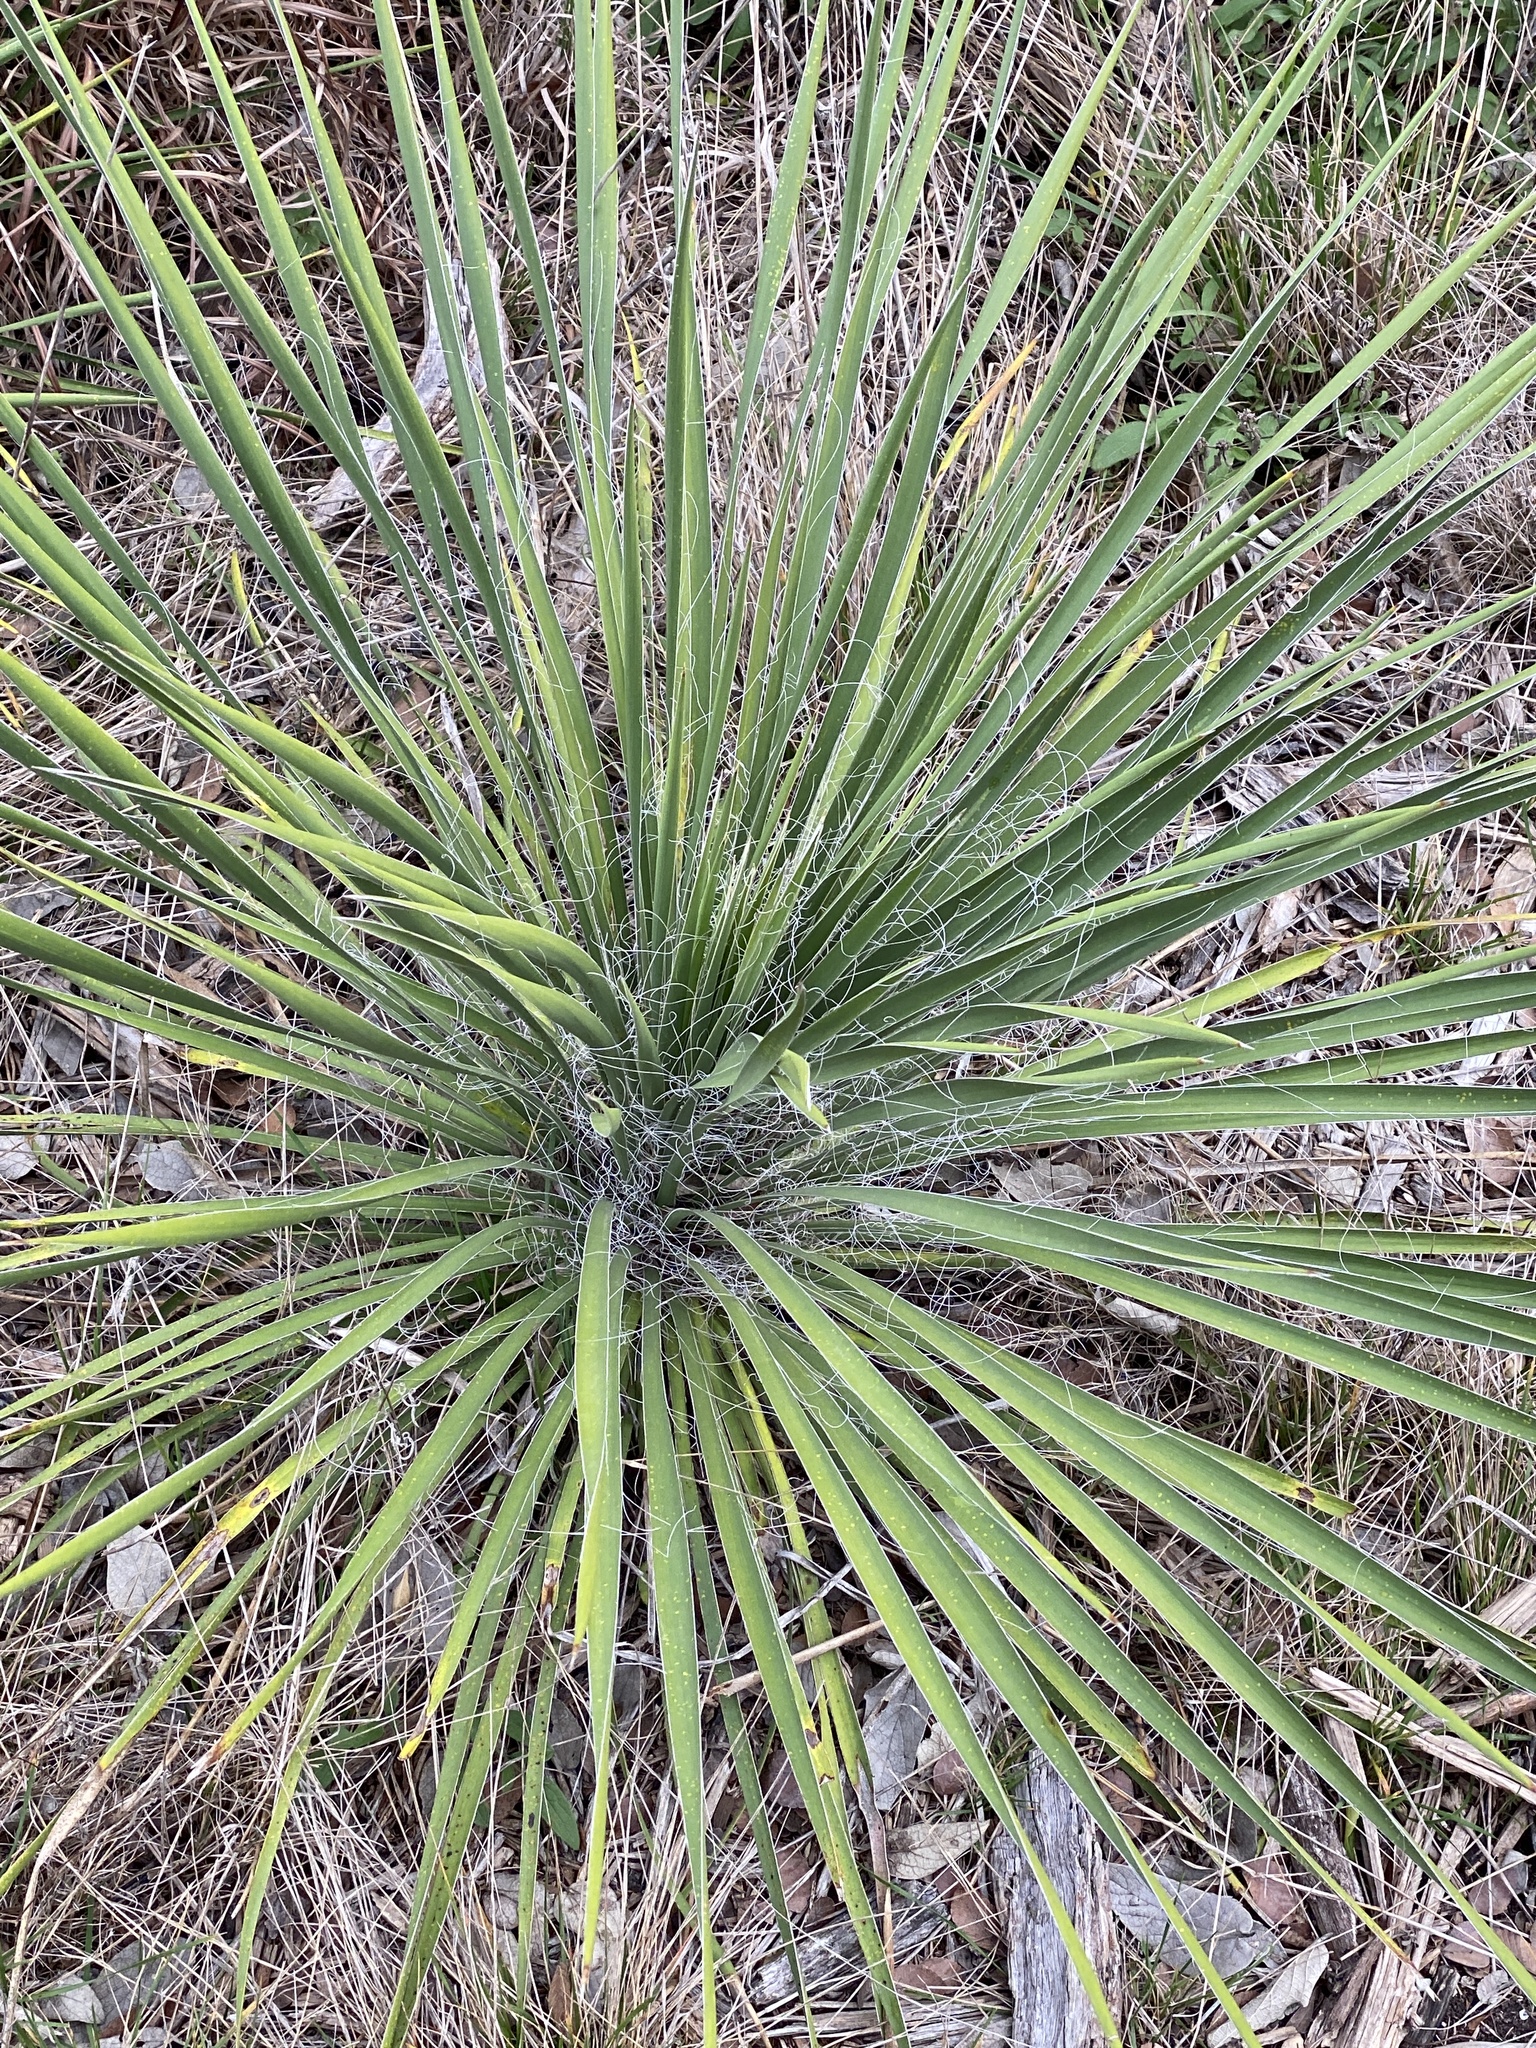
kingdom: Plantae
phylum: Tracheophyta
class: Liliopsida
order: Asparagales
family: Asparagaceae
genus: Yucca
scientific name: Yucca constricta
